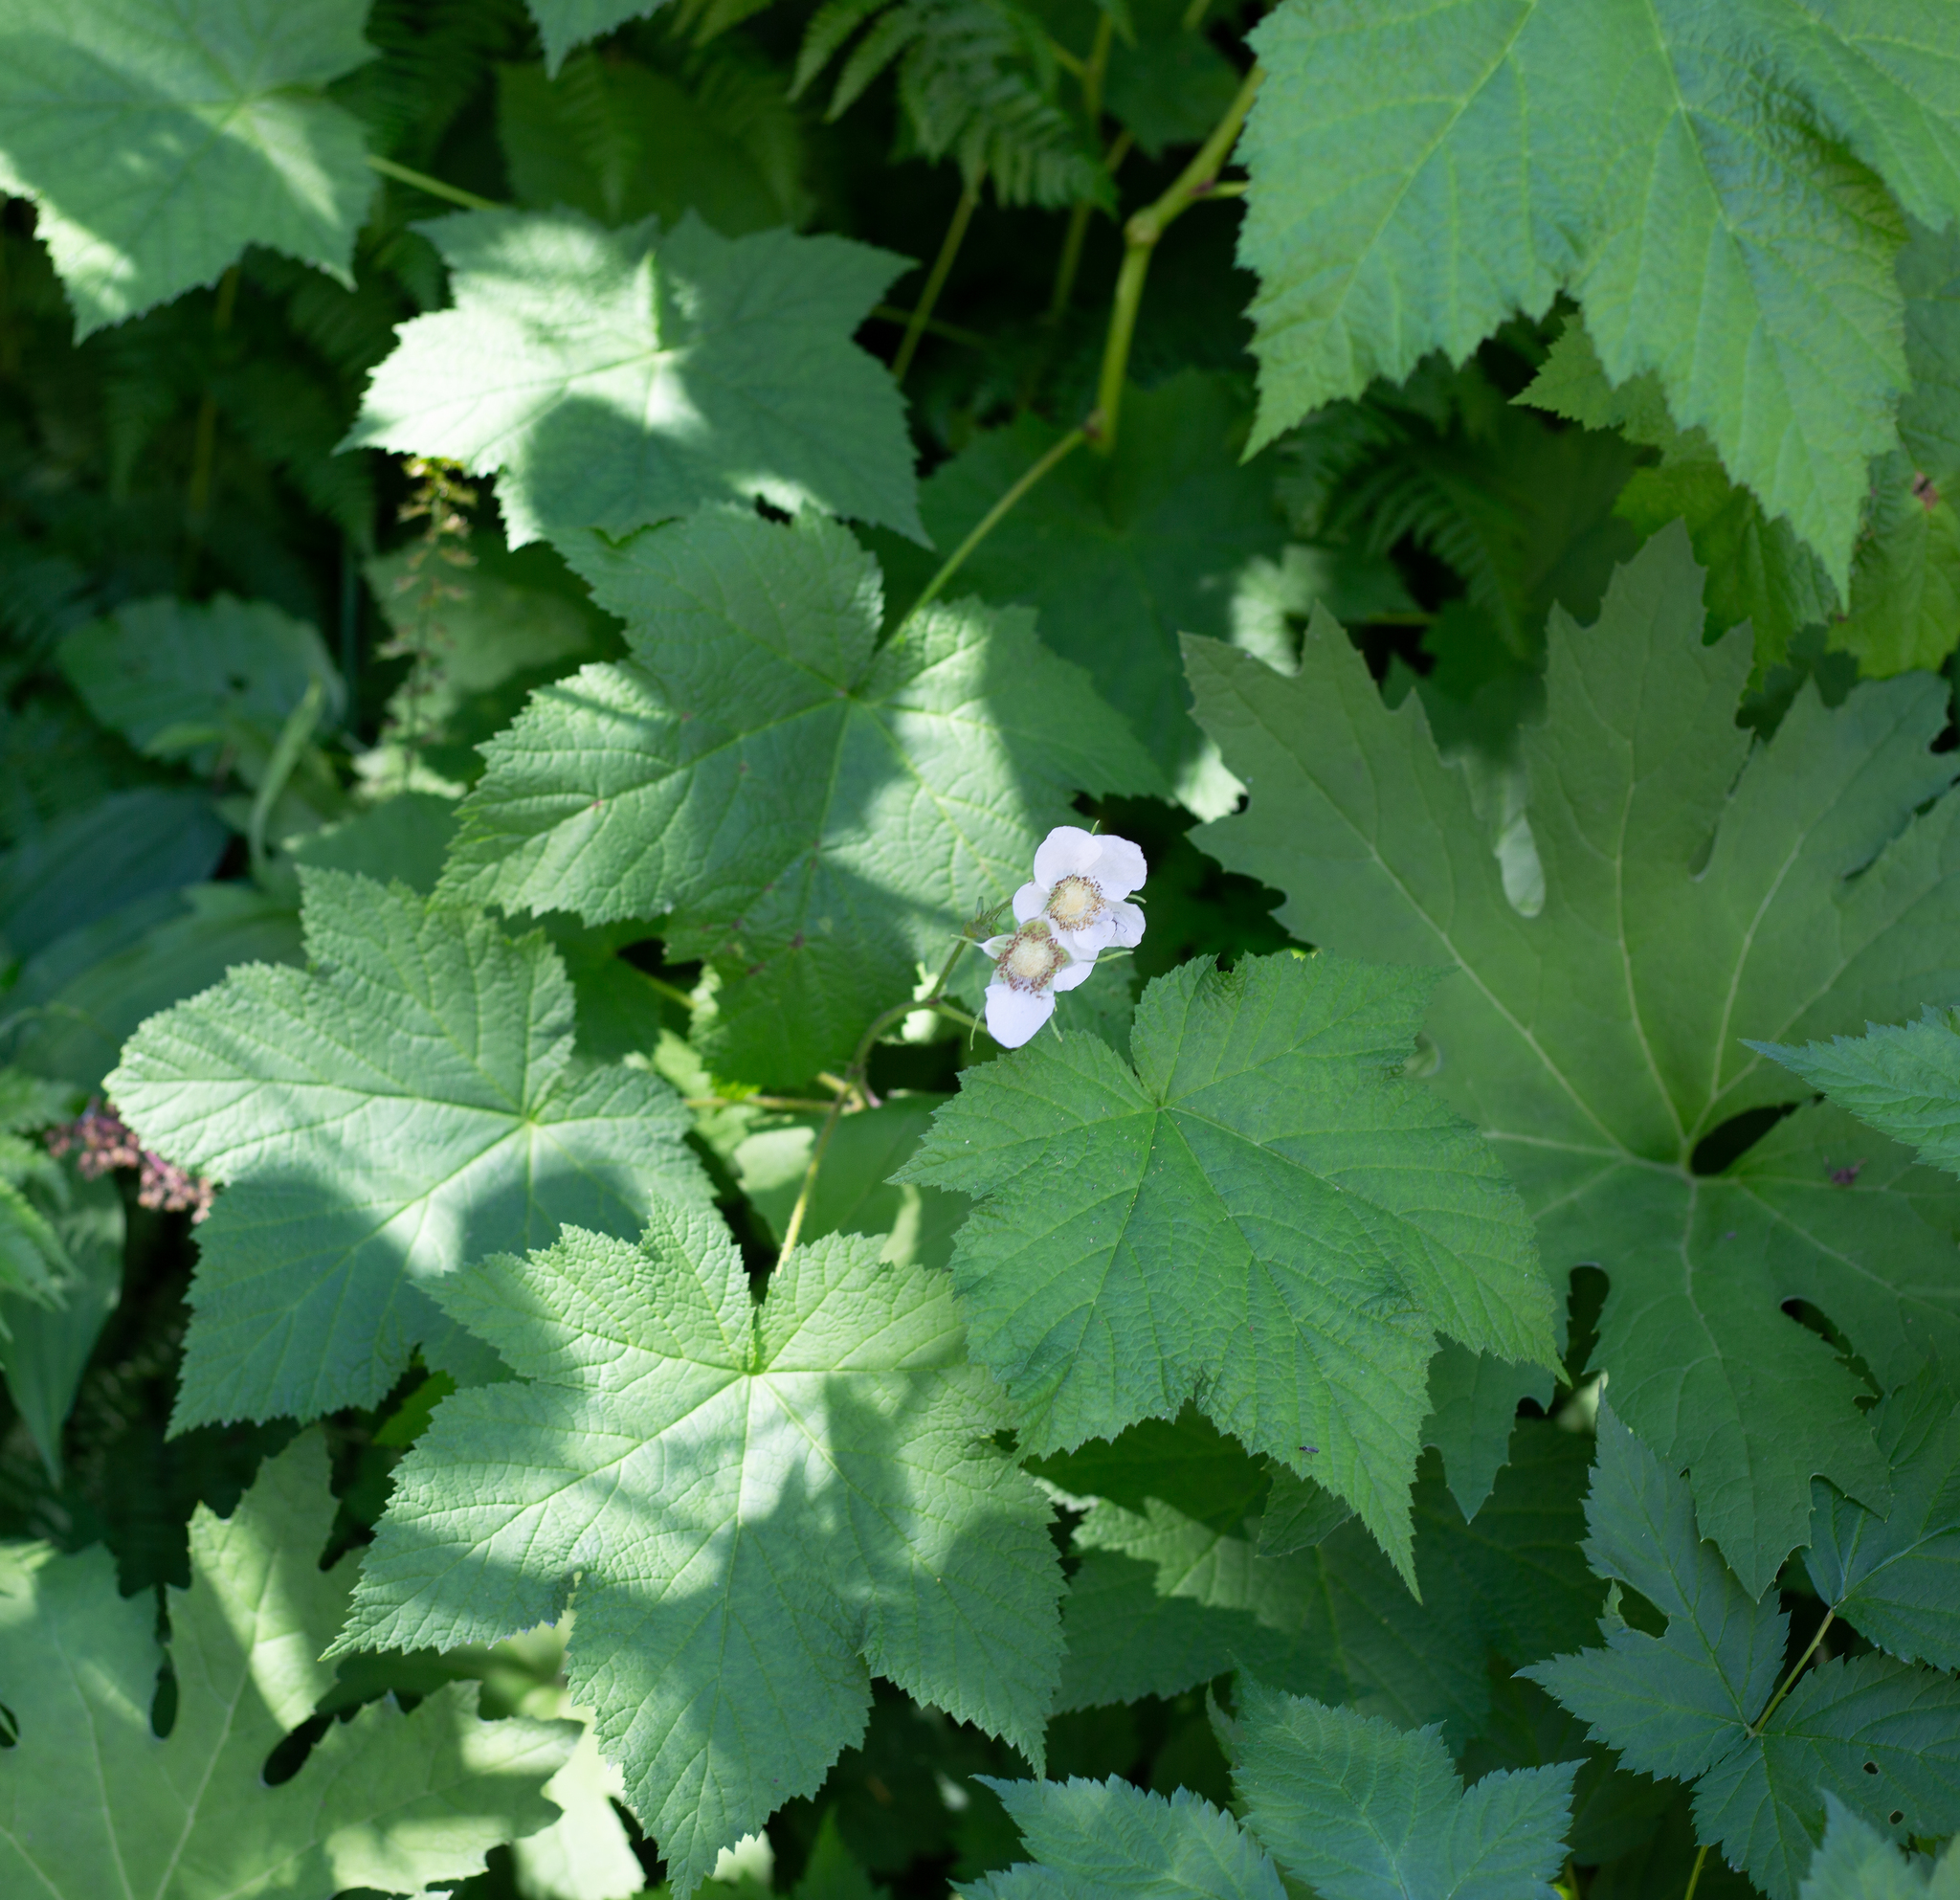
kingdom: Plantae
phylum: Tracheophyta
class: Magnoliopsida
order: Rosales
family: Rosaceae
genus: Rubus
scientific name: Rubus parviflorus
